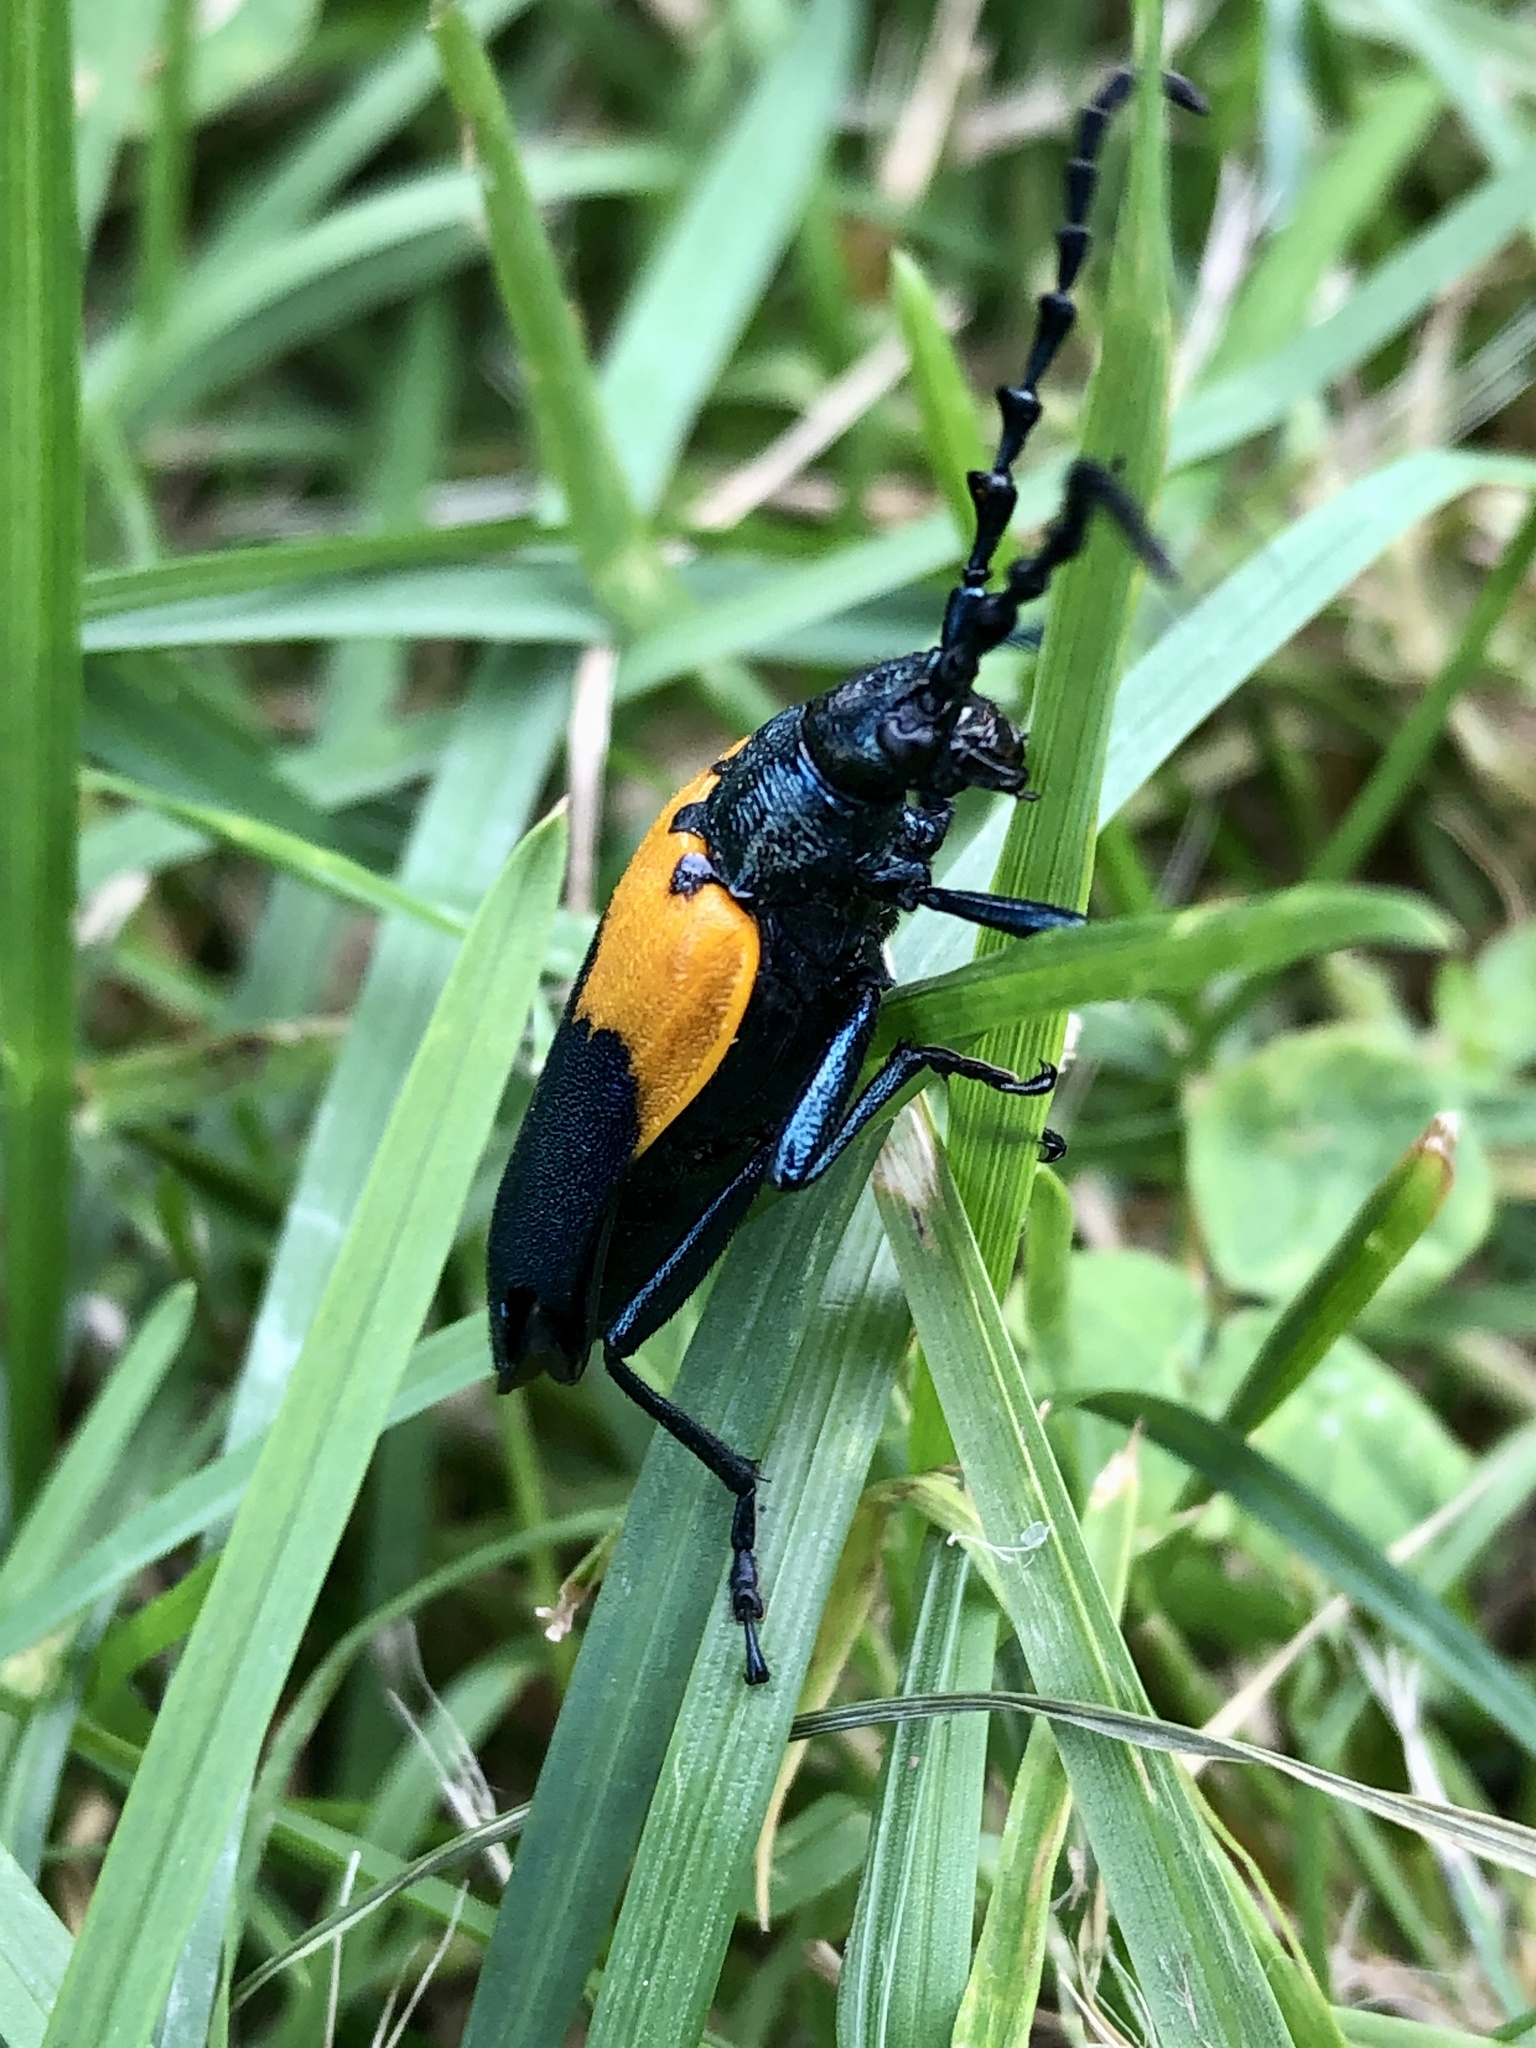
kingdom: Animalia
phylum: Arthropoda
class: Insecta
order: Coleoptera
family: Cerambycidae
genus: Desmocerus
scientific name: Desmocerus palliatus
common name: Eastern elderberry borer
